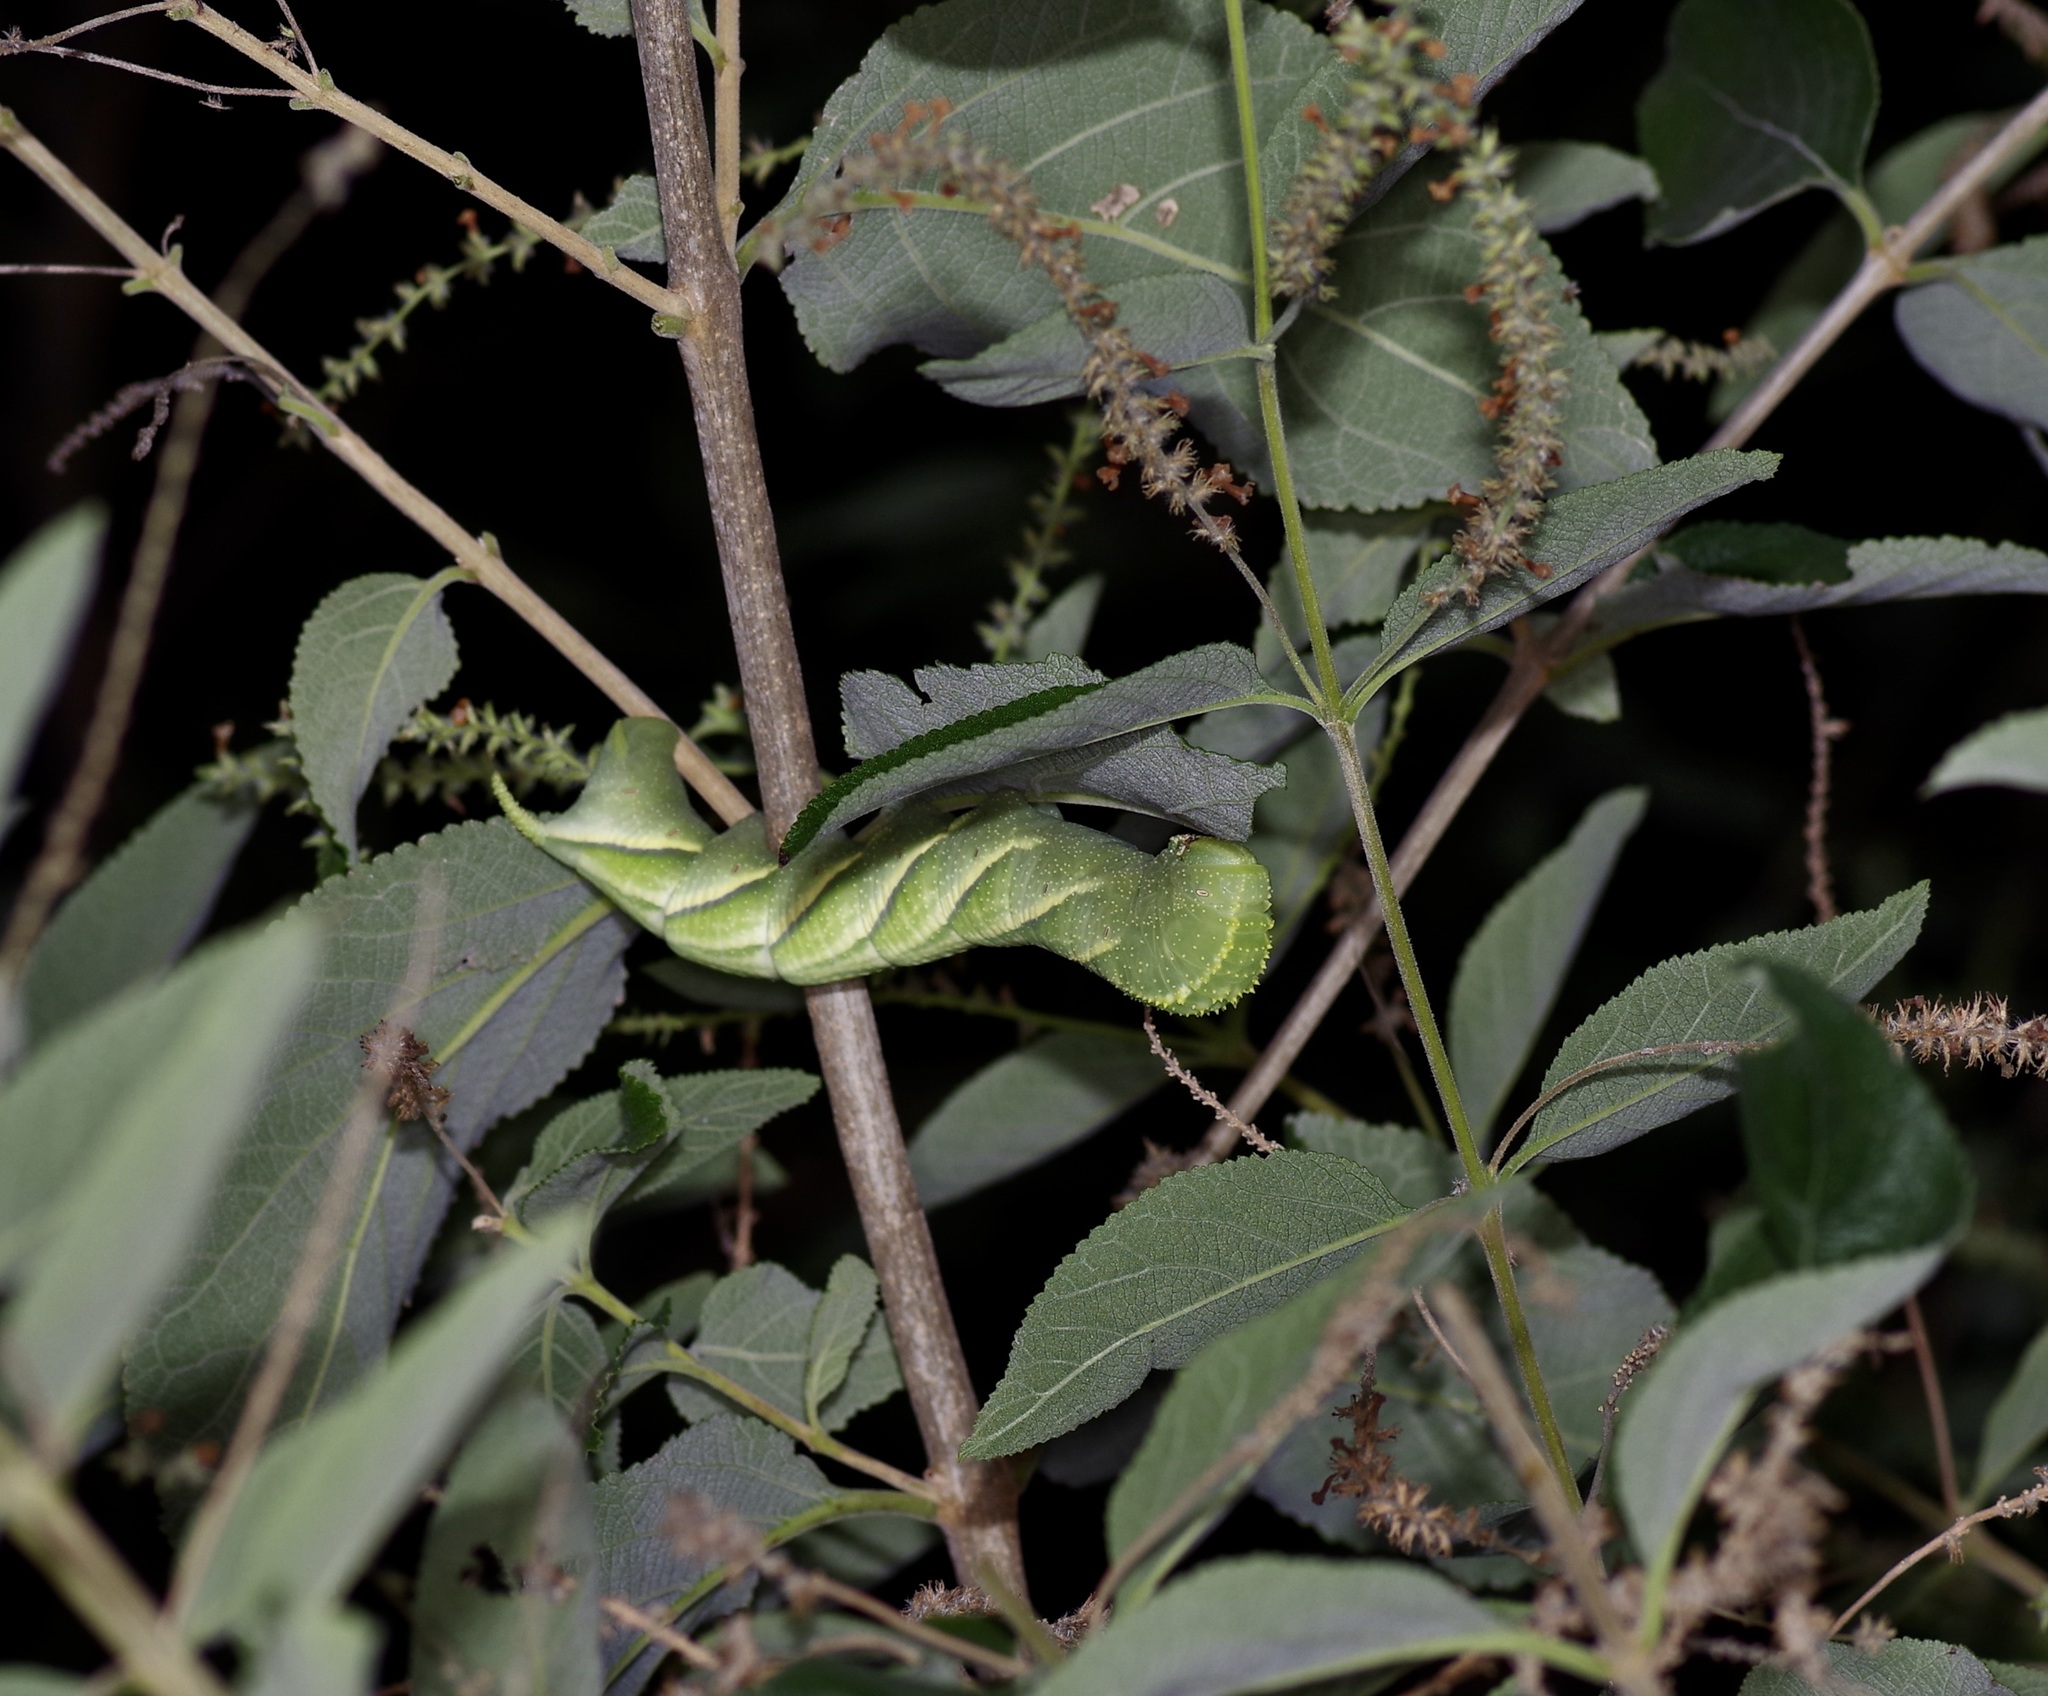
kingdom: Animalia
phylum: Arthropoda
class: Insecta
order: Lepidoptera
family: Sphingidae
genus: Manduca
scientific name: Manduca rustica
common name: Rustic sphinx
